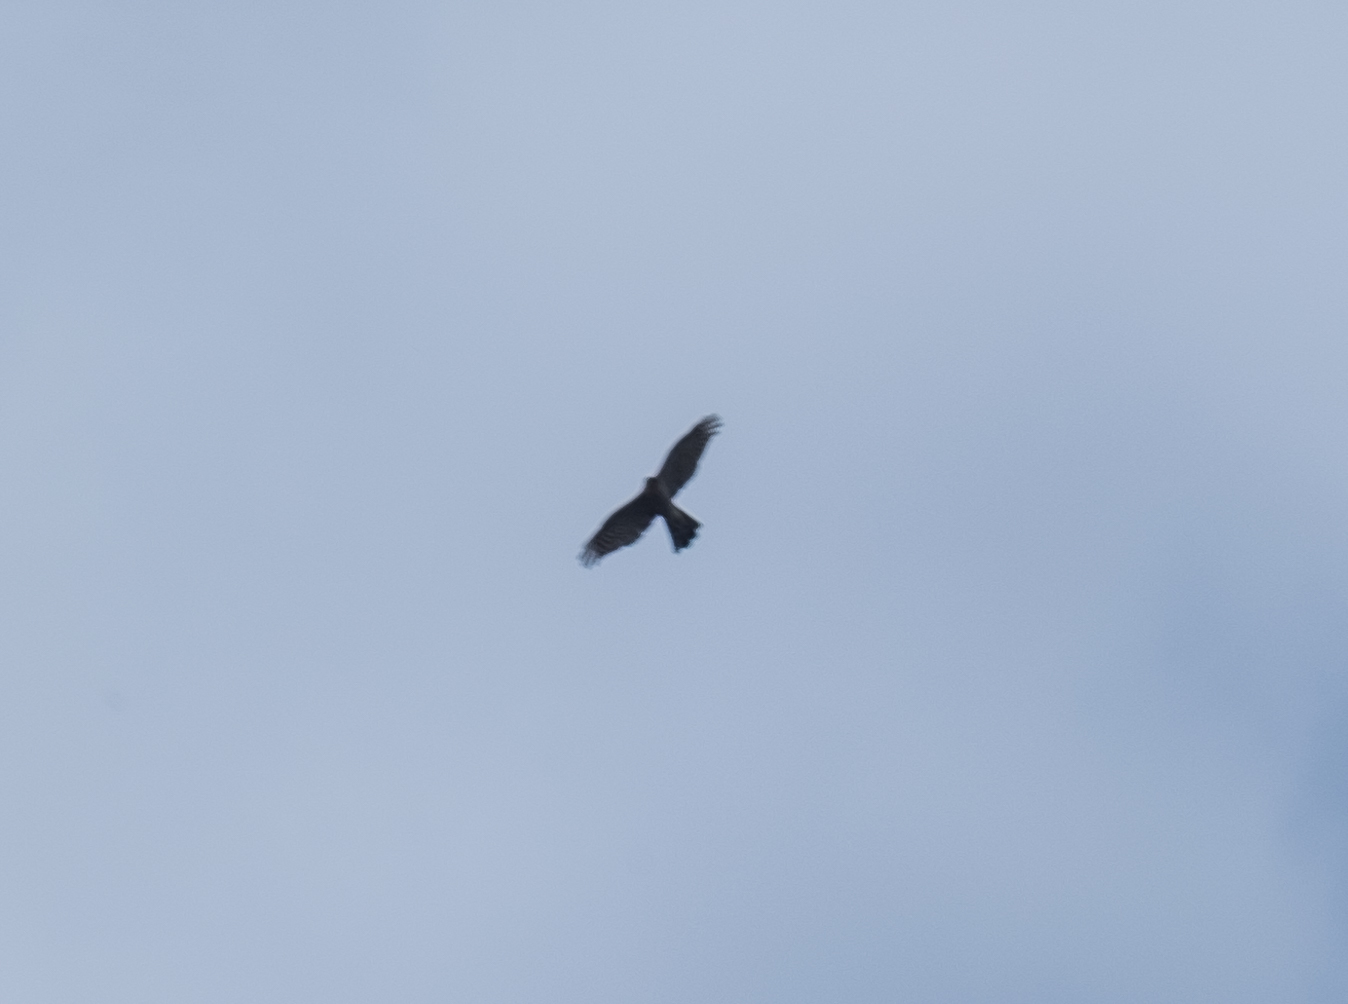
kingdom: Animalia
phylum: Chordata
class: Aves
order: Accipitriformes
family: Accipitridae
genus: Accipiter
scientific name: Accipiter nisus
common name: Eurasian sparrowhawk
